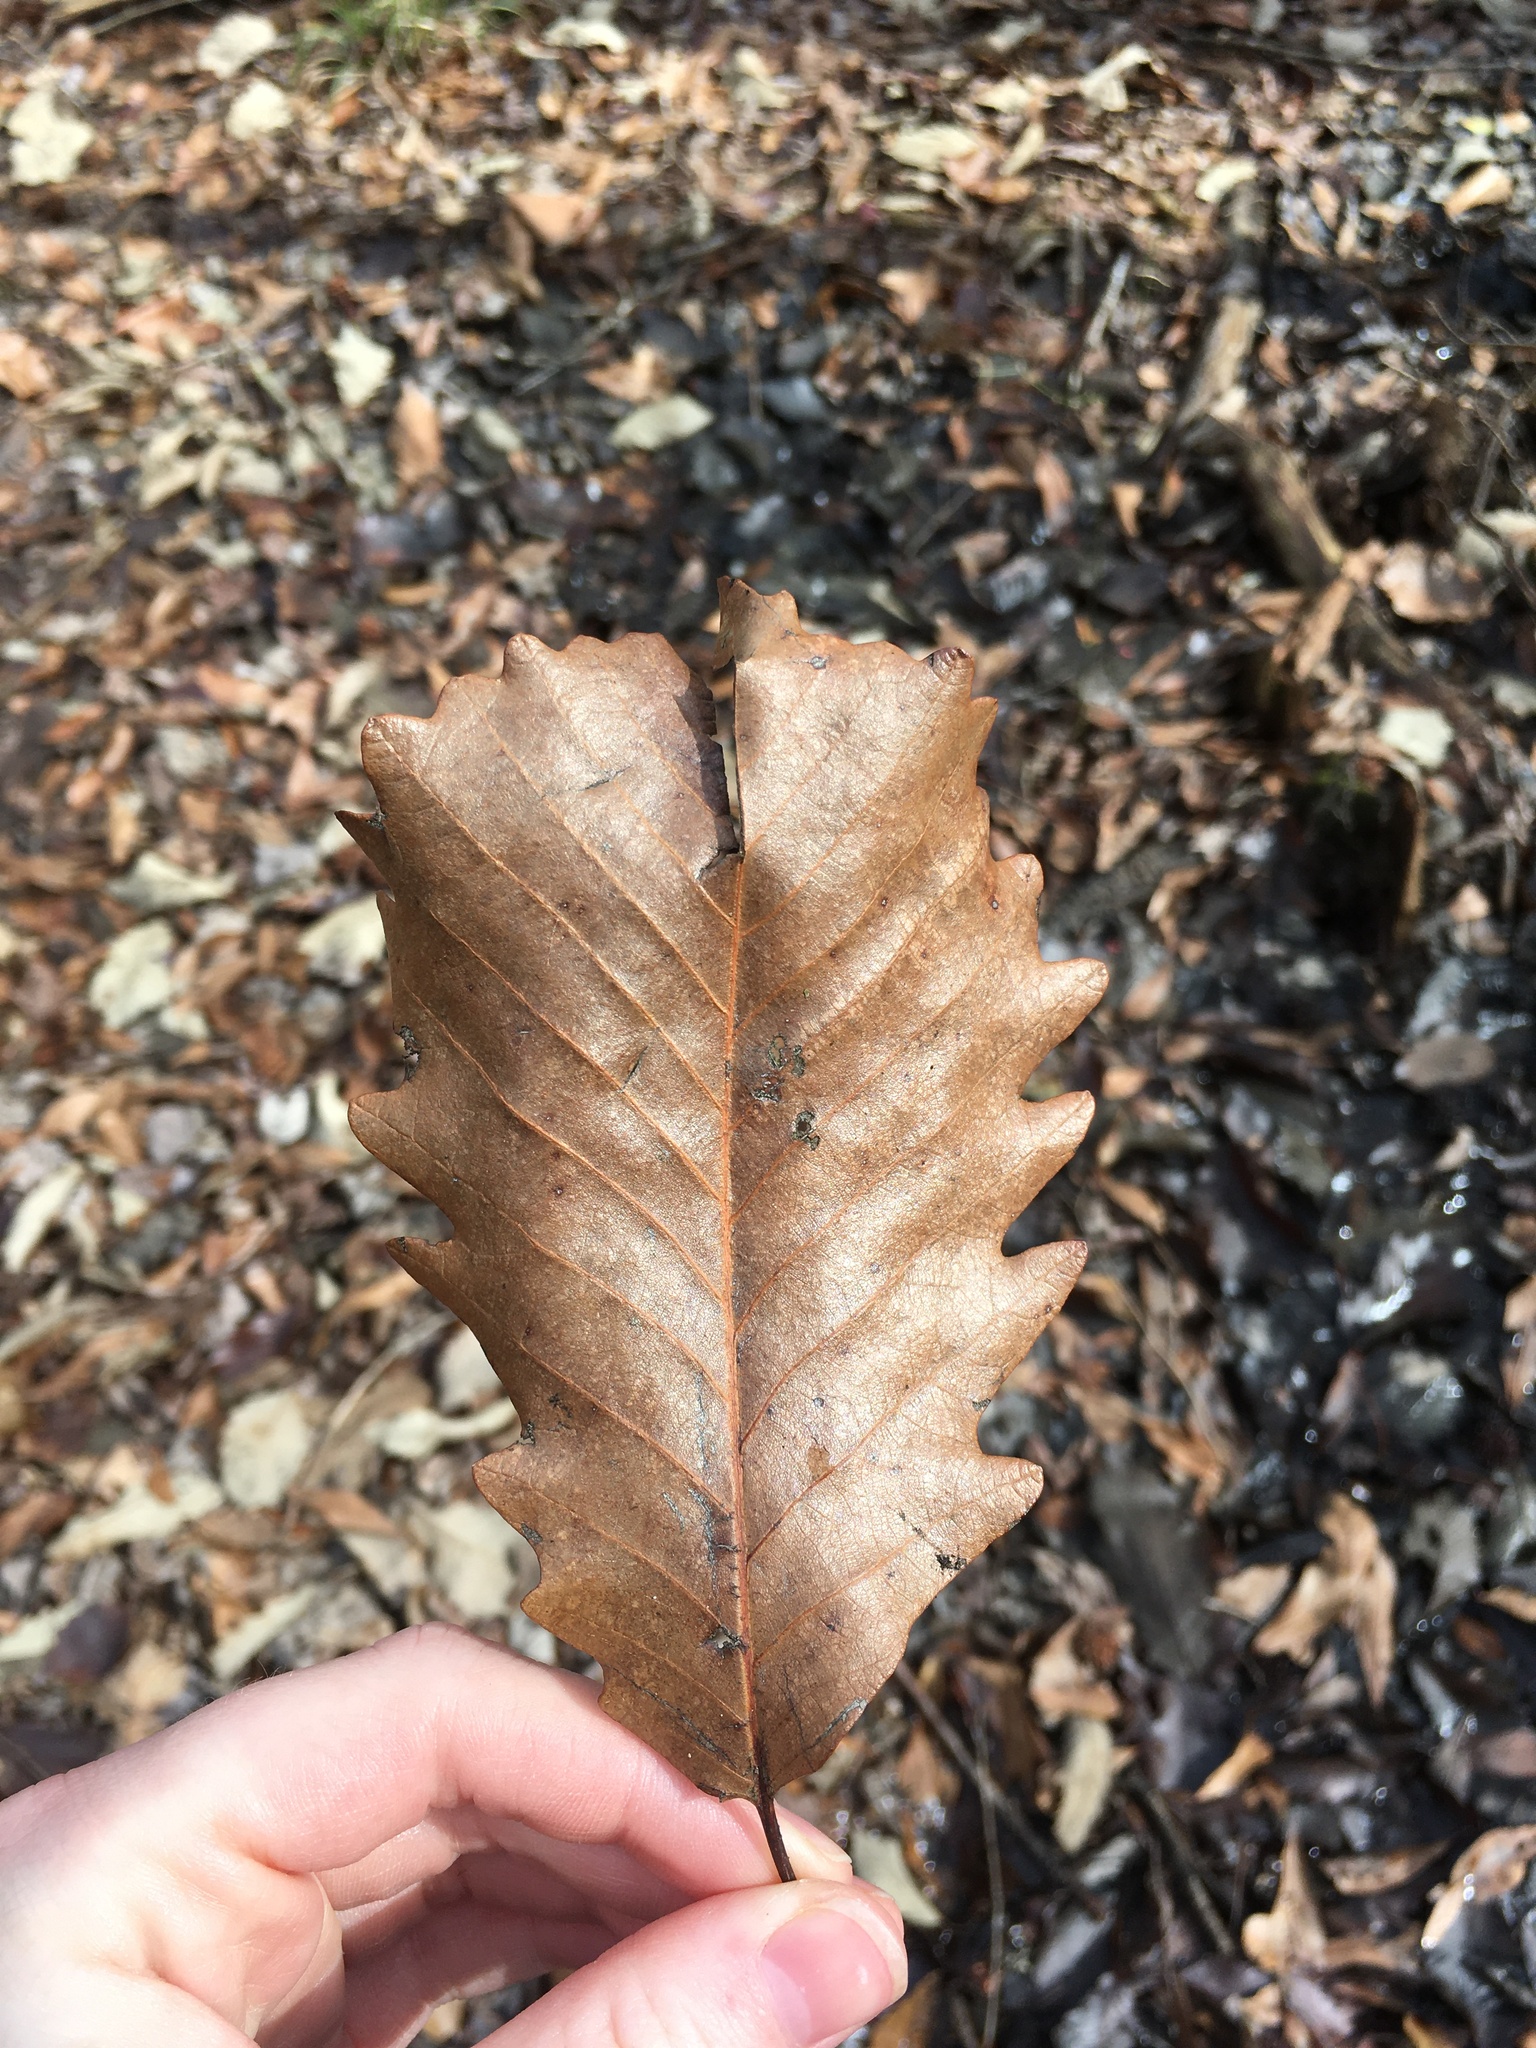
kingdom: Plantae
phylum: Tracheophyta
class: Magnoliopsida
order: Fagales
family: Fagaceae
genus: Quercus
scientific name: Quercus michauxii
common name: Swamp chestnut oak
